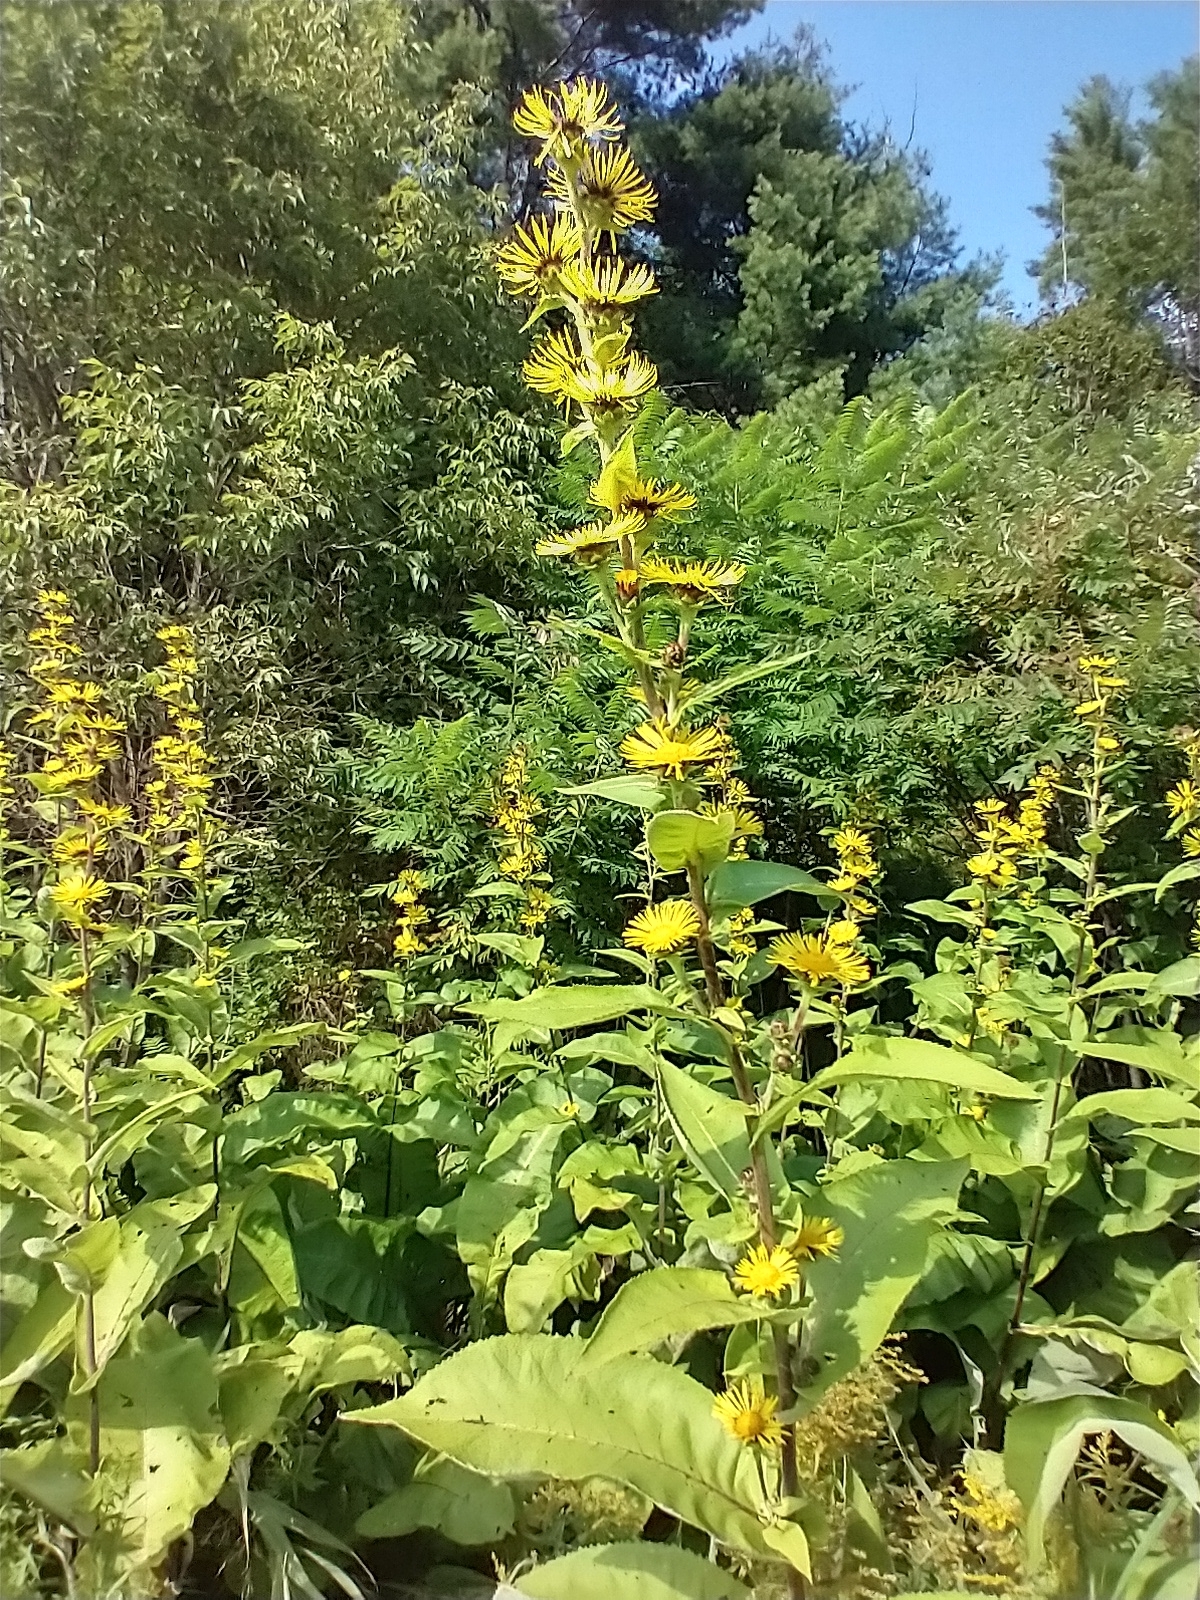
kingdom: Plantae
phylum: Tracheophyta
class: Magnoliopsida
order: Asterales
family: Asteraceae
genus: Inula
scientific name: Inula racemosa
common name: Indian elecampane
